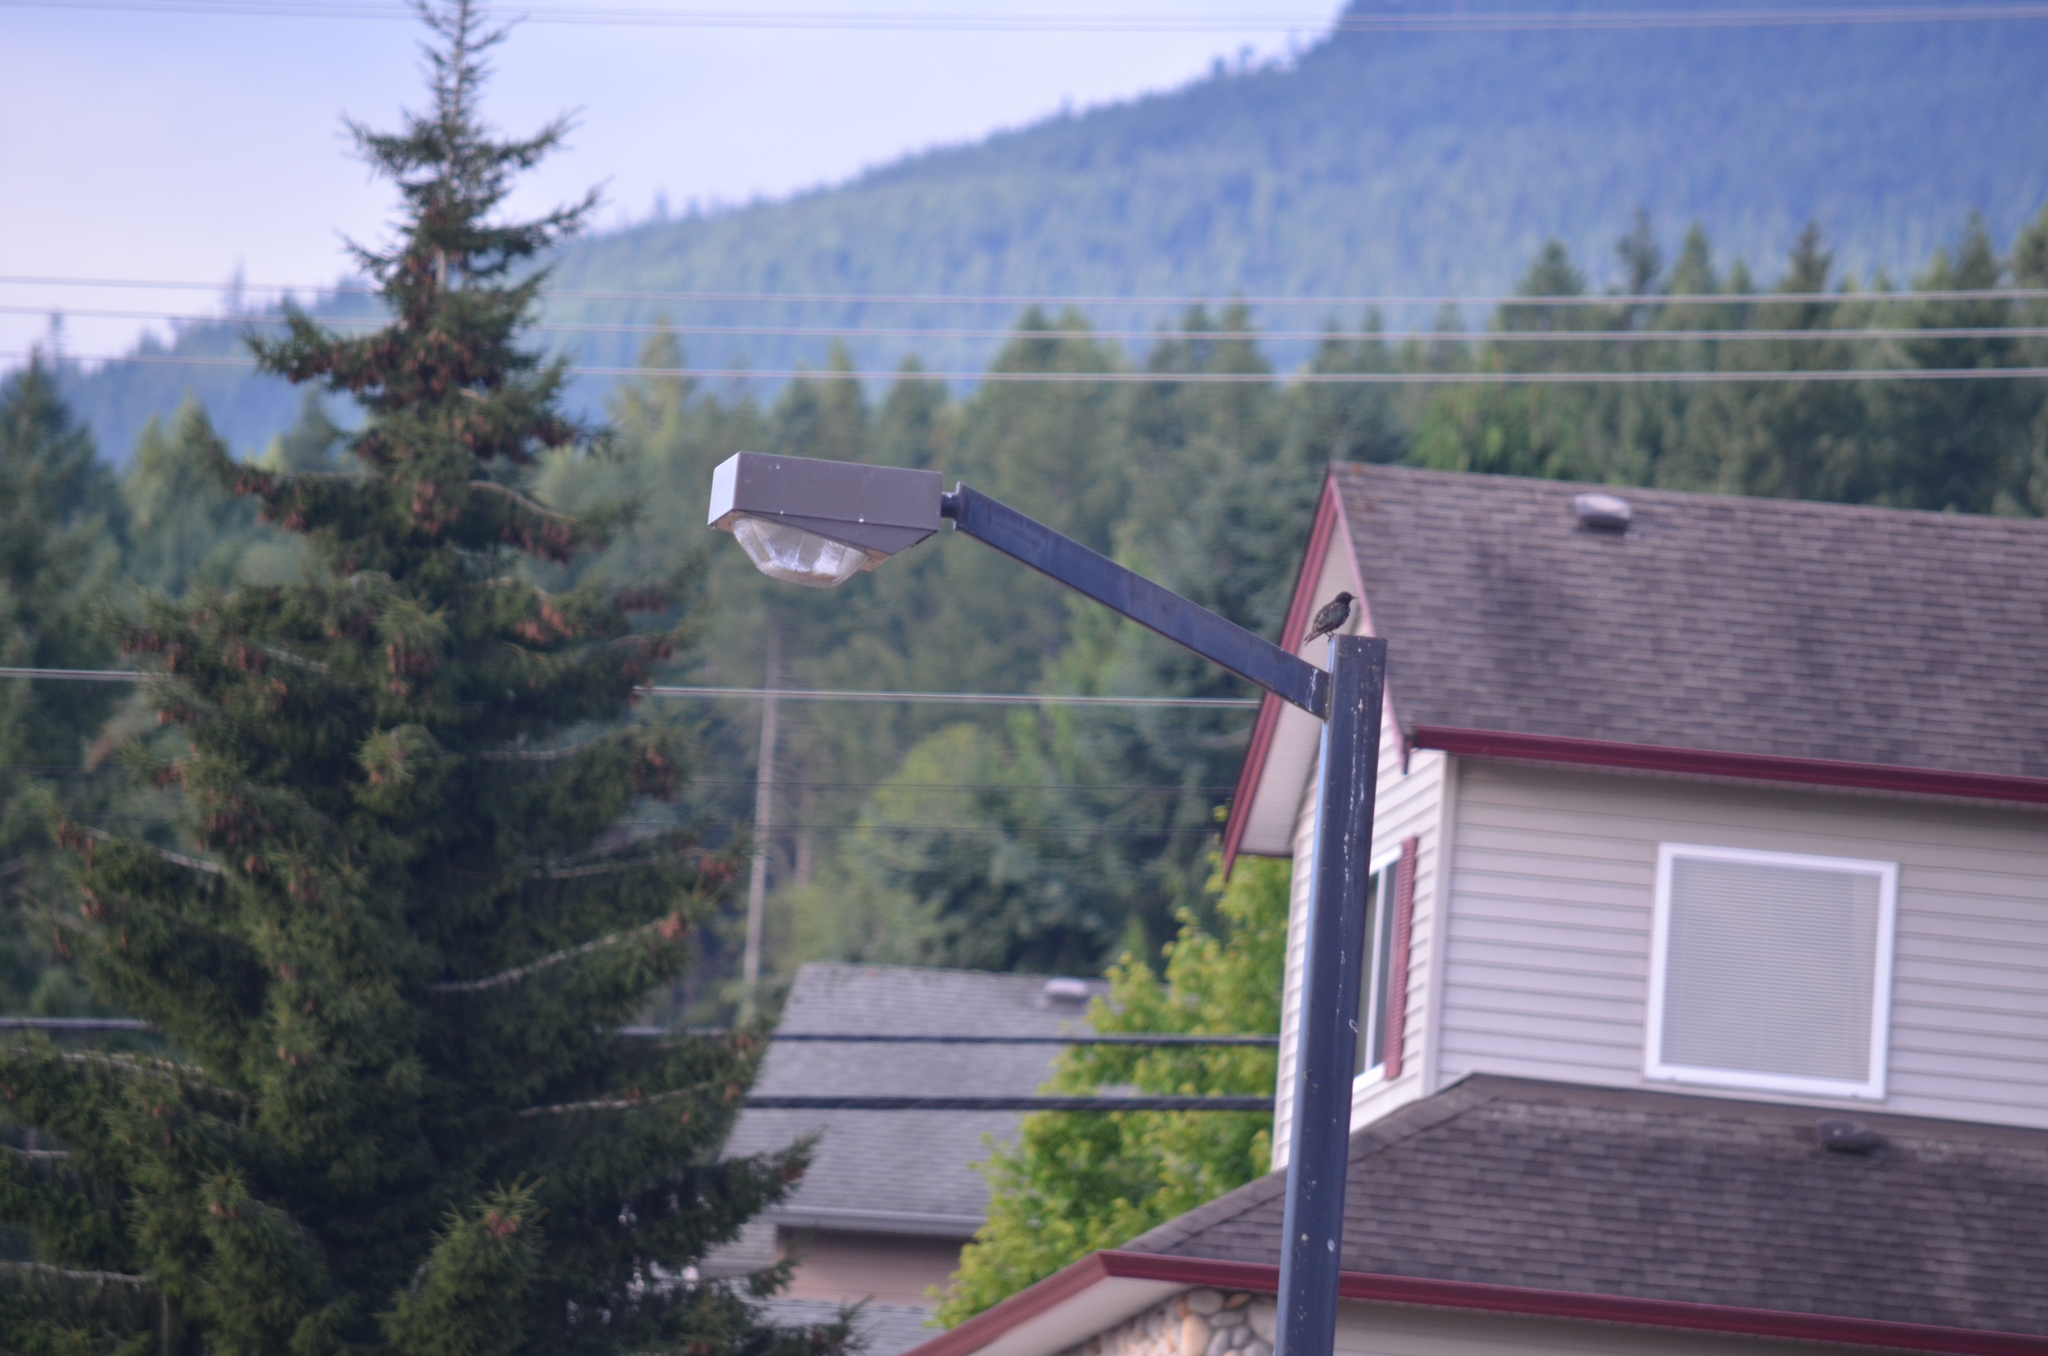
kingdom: Animalia
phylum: Chordata
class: Aves
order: Passeriformes
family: Sturnidae
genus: Sturnus
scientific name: Sturnus vulgaris
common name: Common starling
